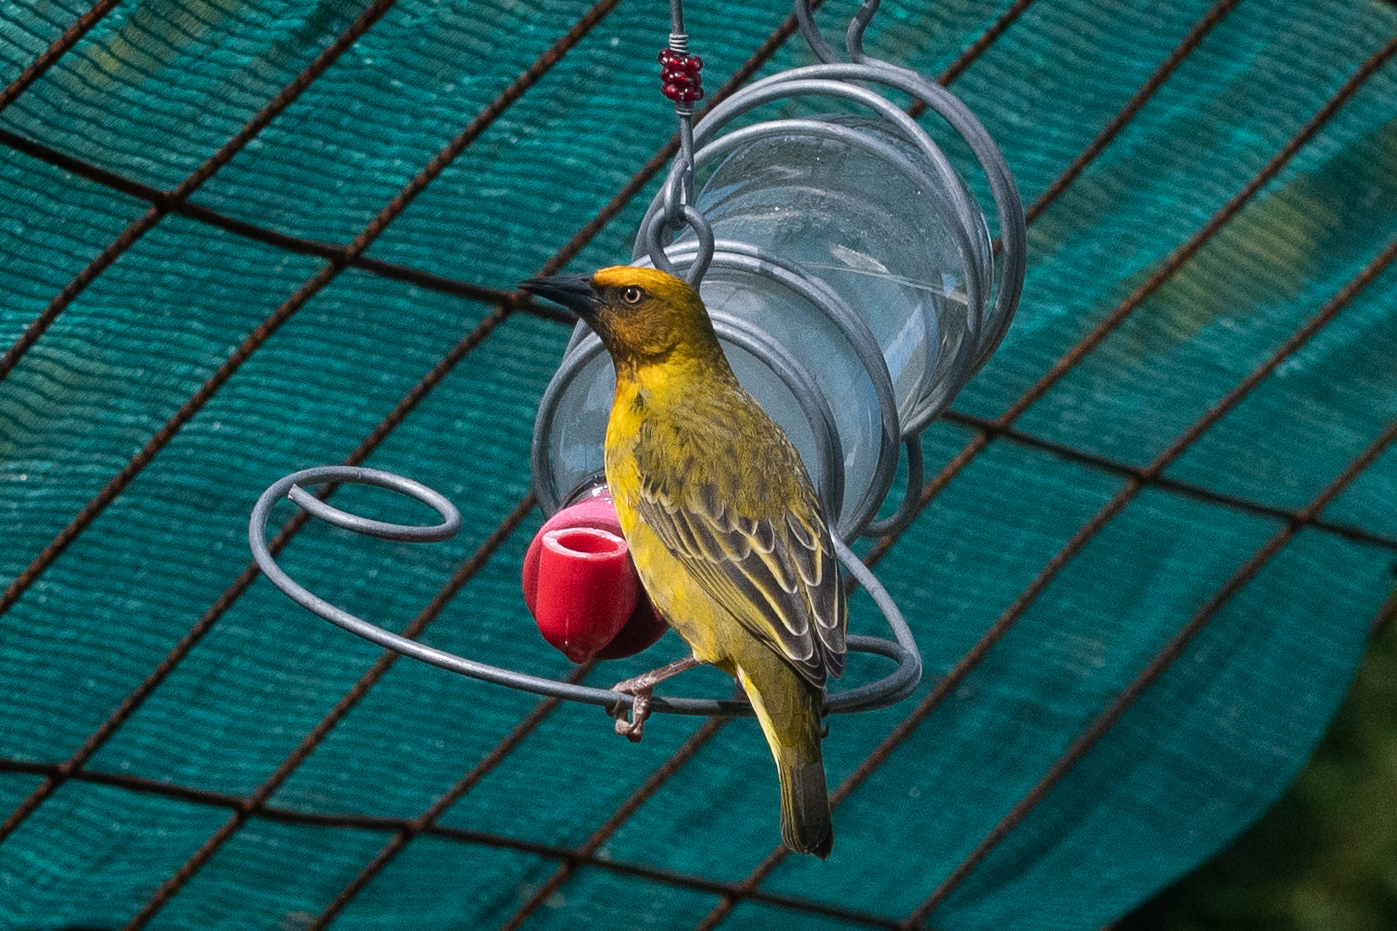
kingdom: Animalia
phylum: Chordata
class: Aves
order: Passeriformes
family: Ploceidae
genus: Ploceus
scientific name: Ploceus capensis
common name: Cape weaver
